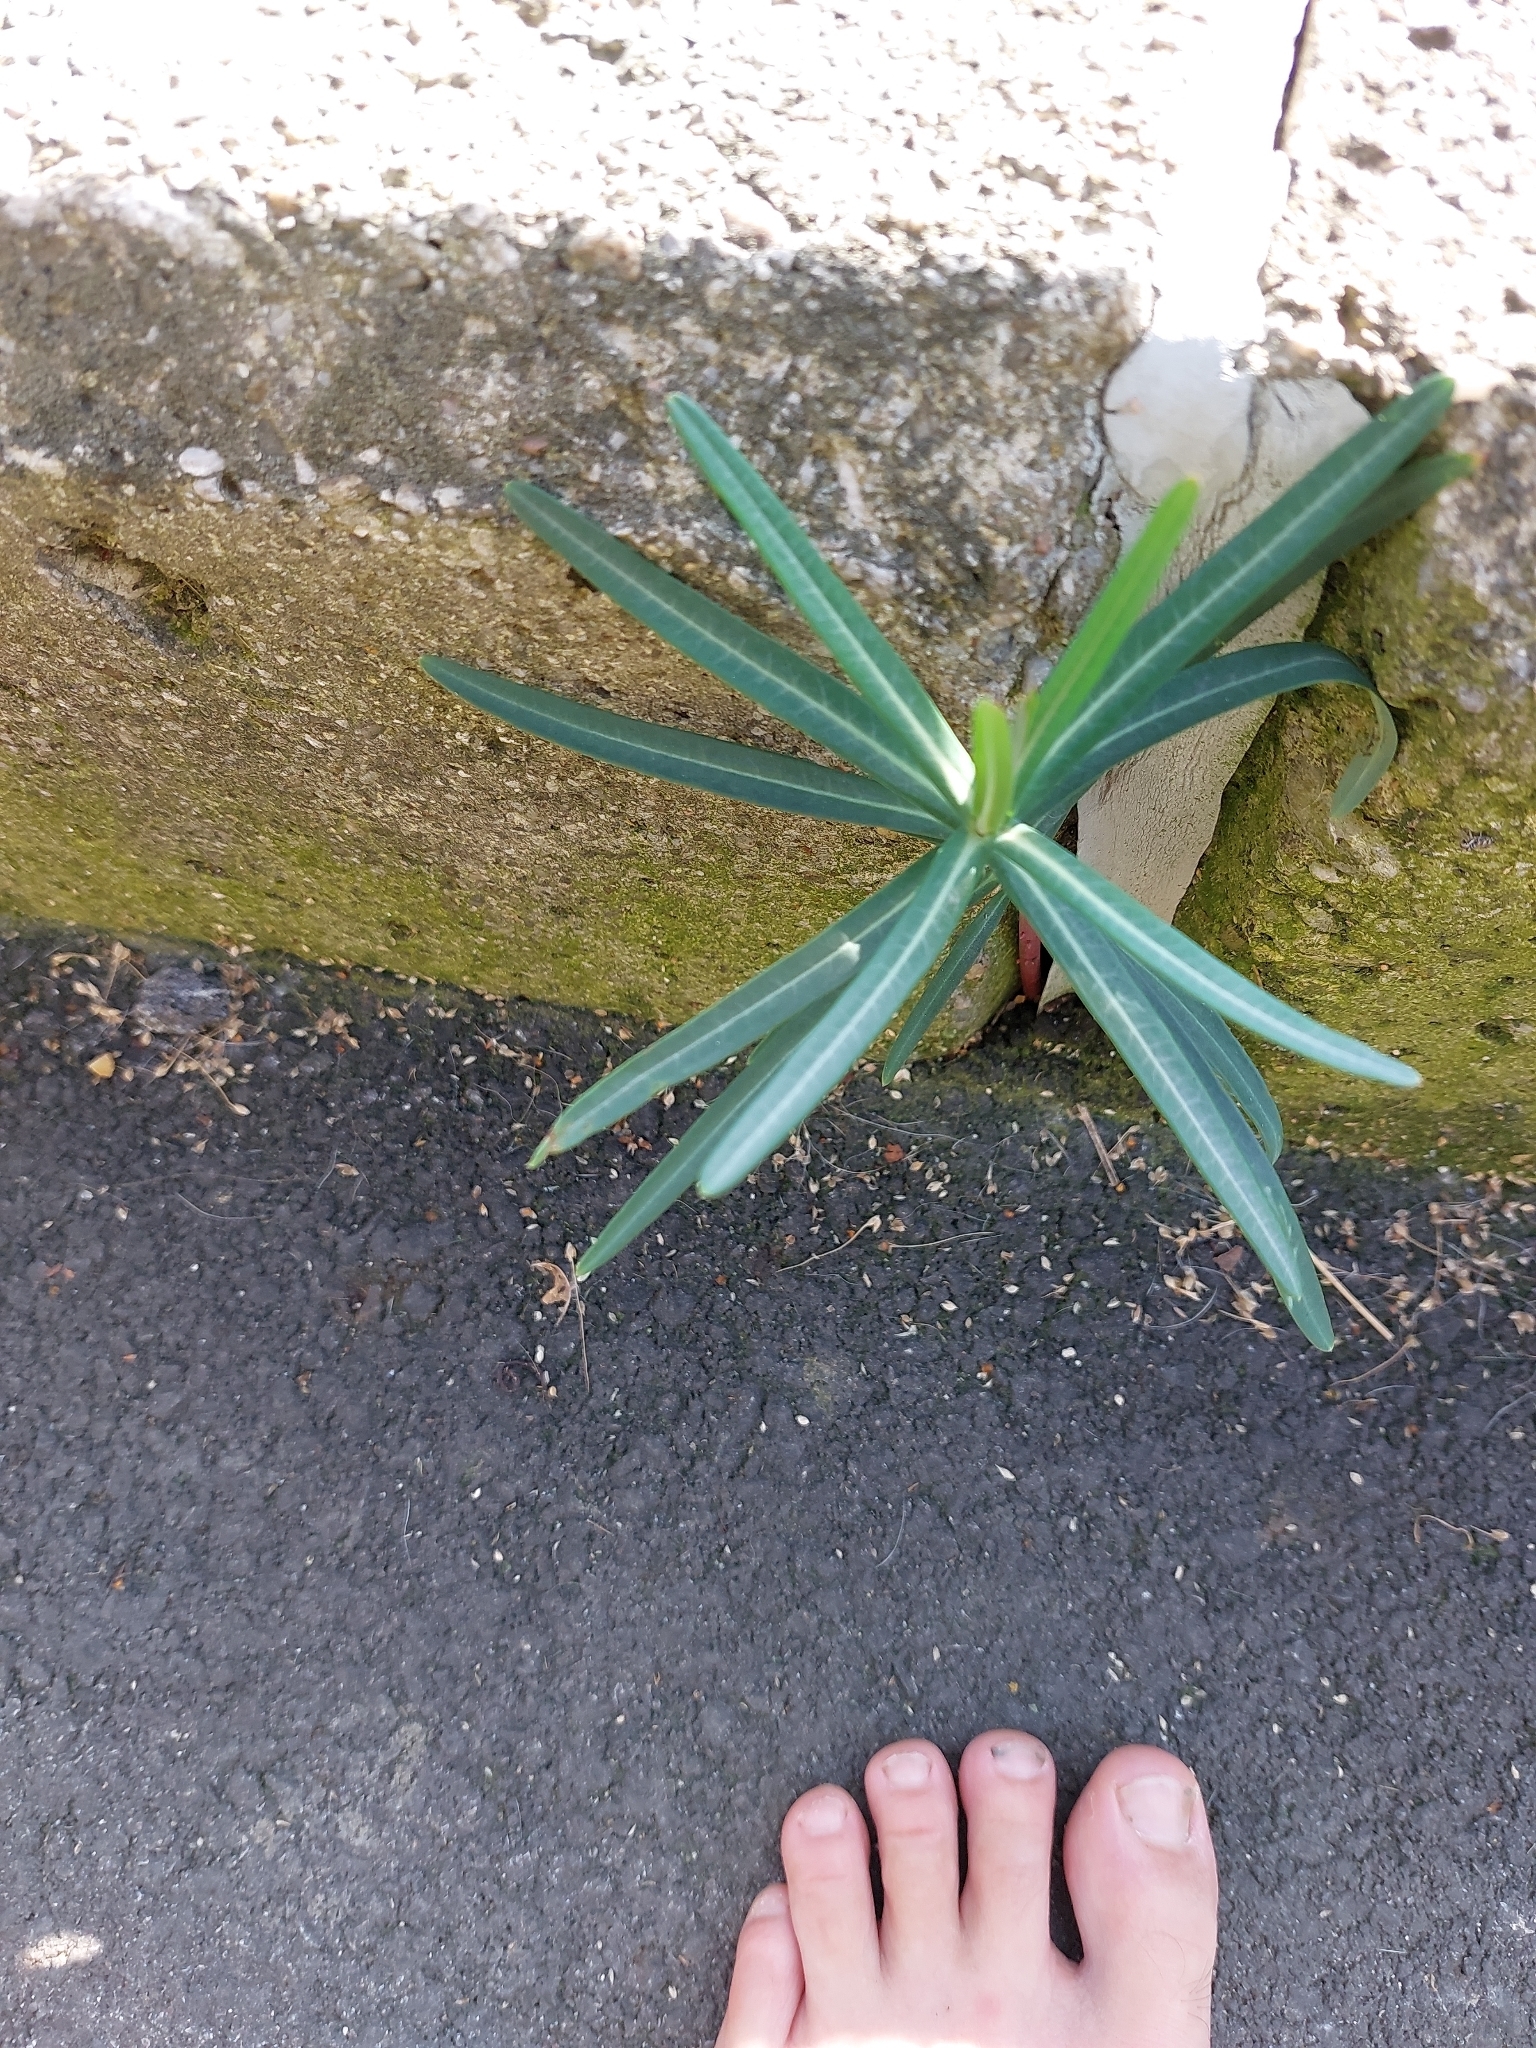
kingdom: Plantae
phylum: Tracheophyta
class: Magnoliopsida
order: Malpighiales
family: Euphorbiaceae
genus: Euphorbia
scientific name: Euphorbia lathyris
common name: Caper spurge
